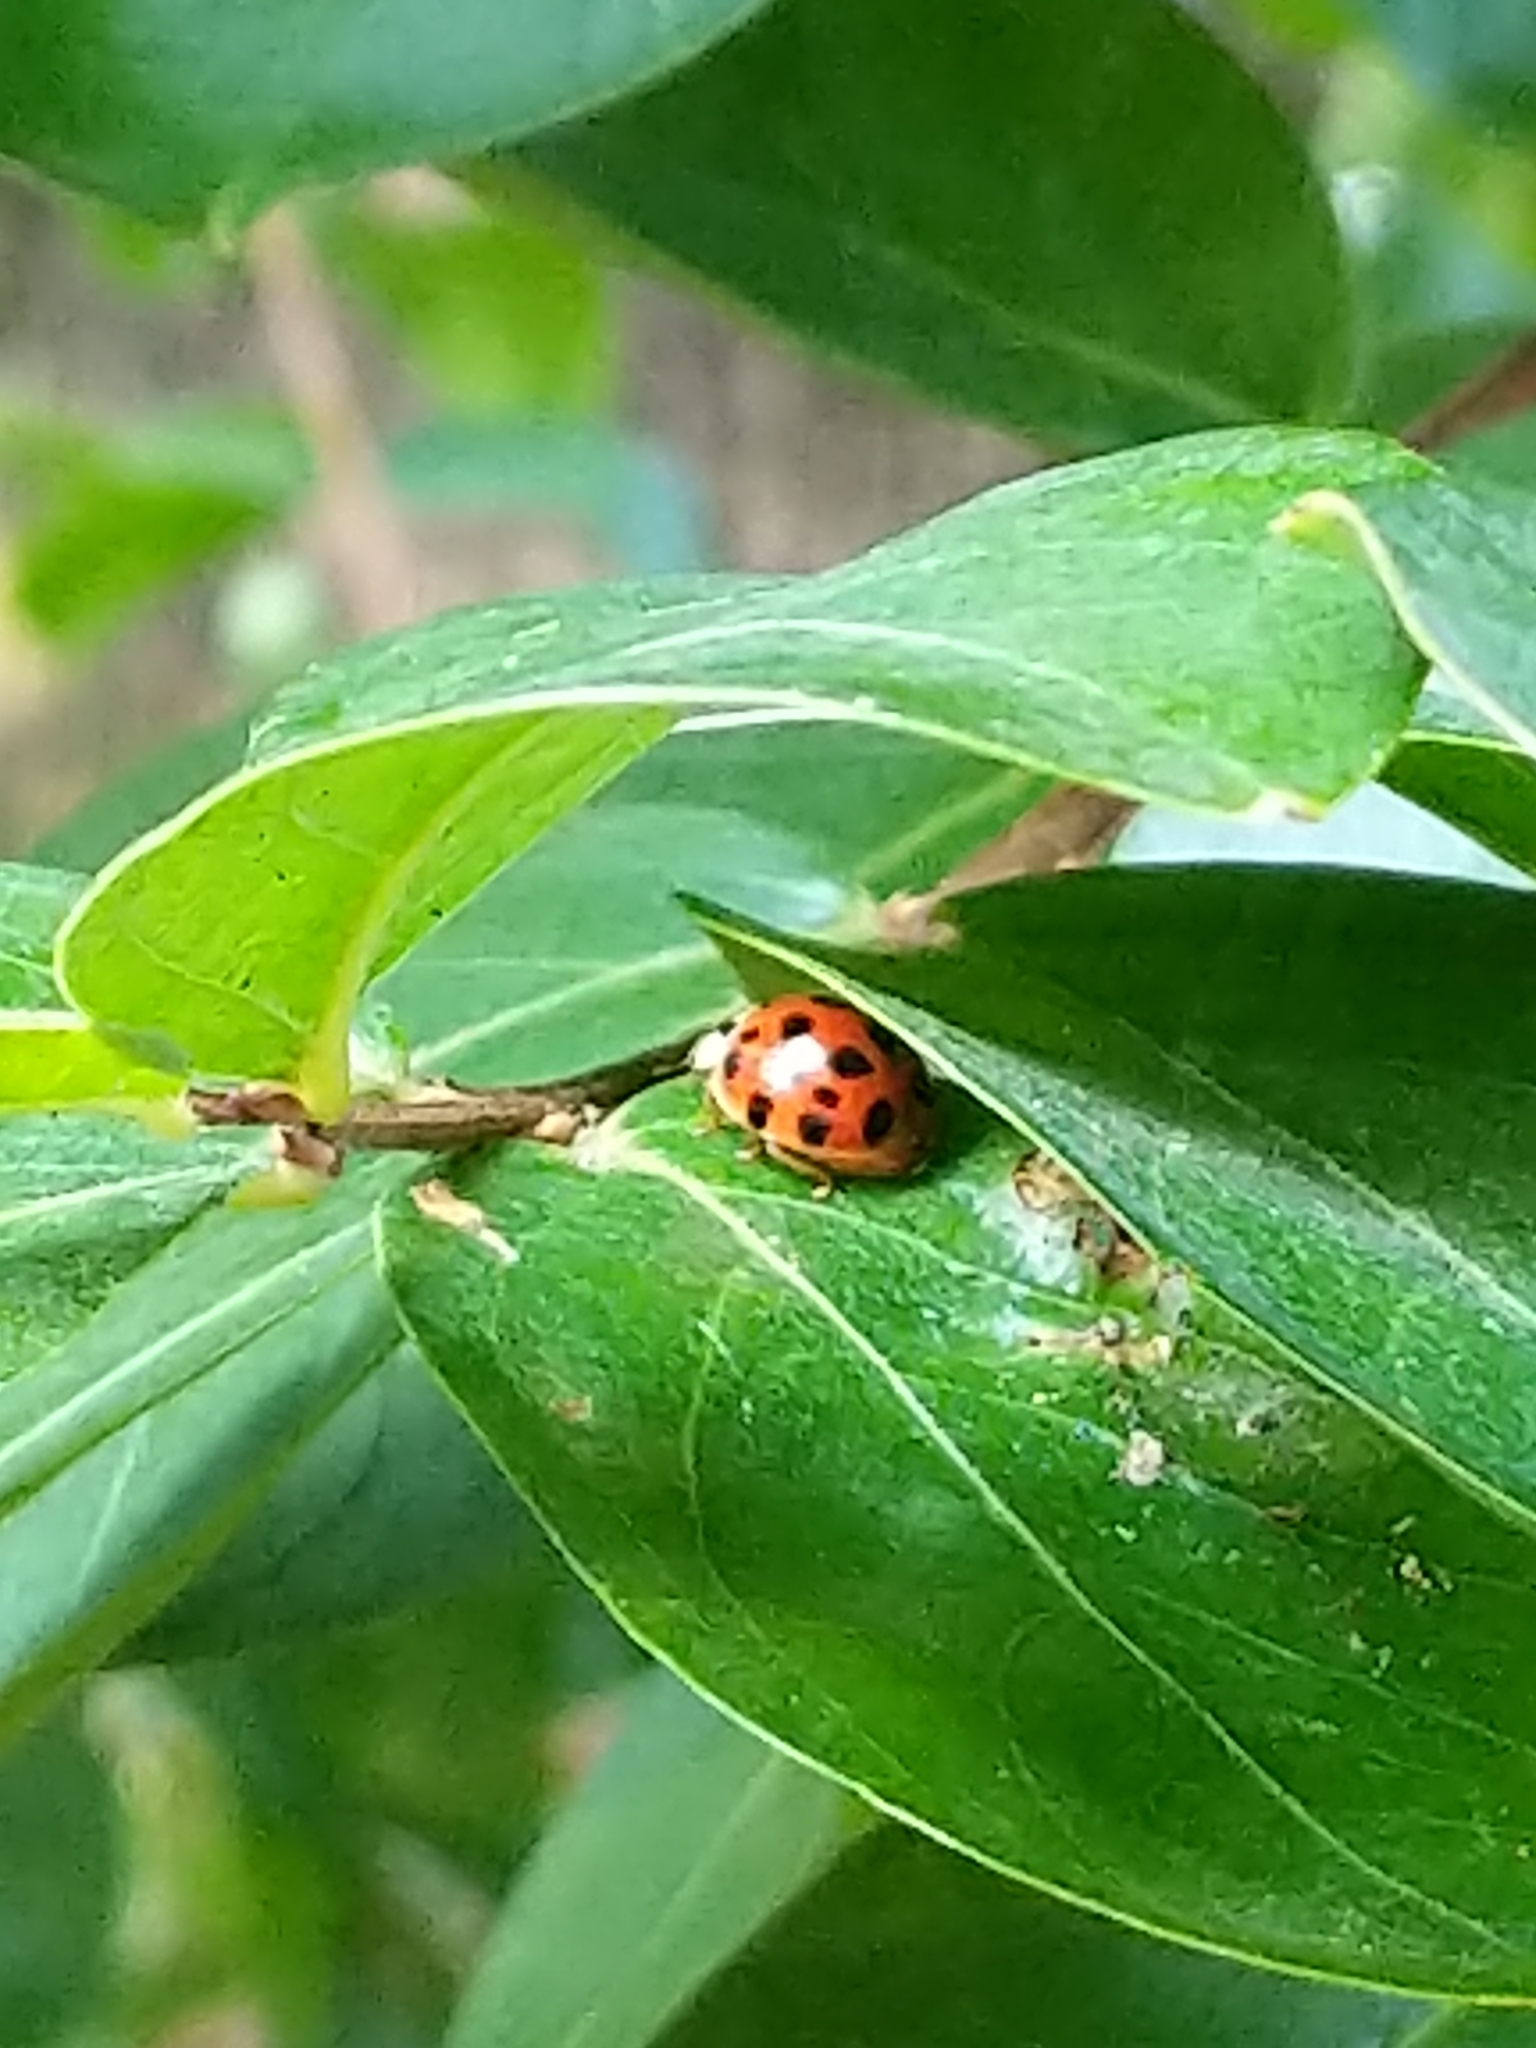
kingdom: Animalia
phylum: Arthropoda
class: Insecta
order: Coleoptera
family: Coccinellidae
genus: Harmonia
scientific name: Harmonia axyridis
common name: Harlequin ladybird
